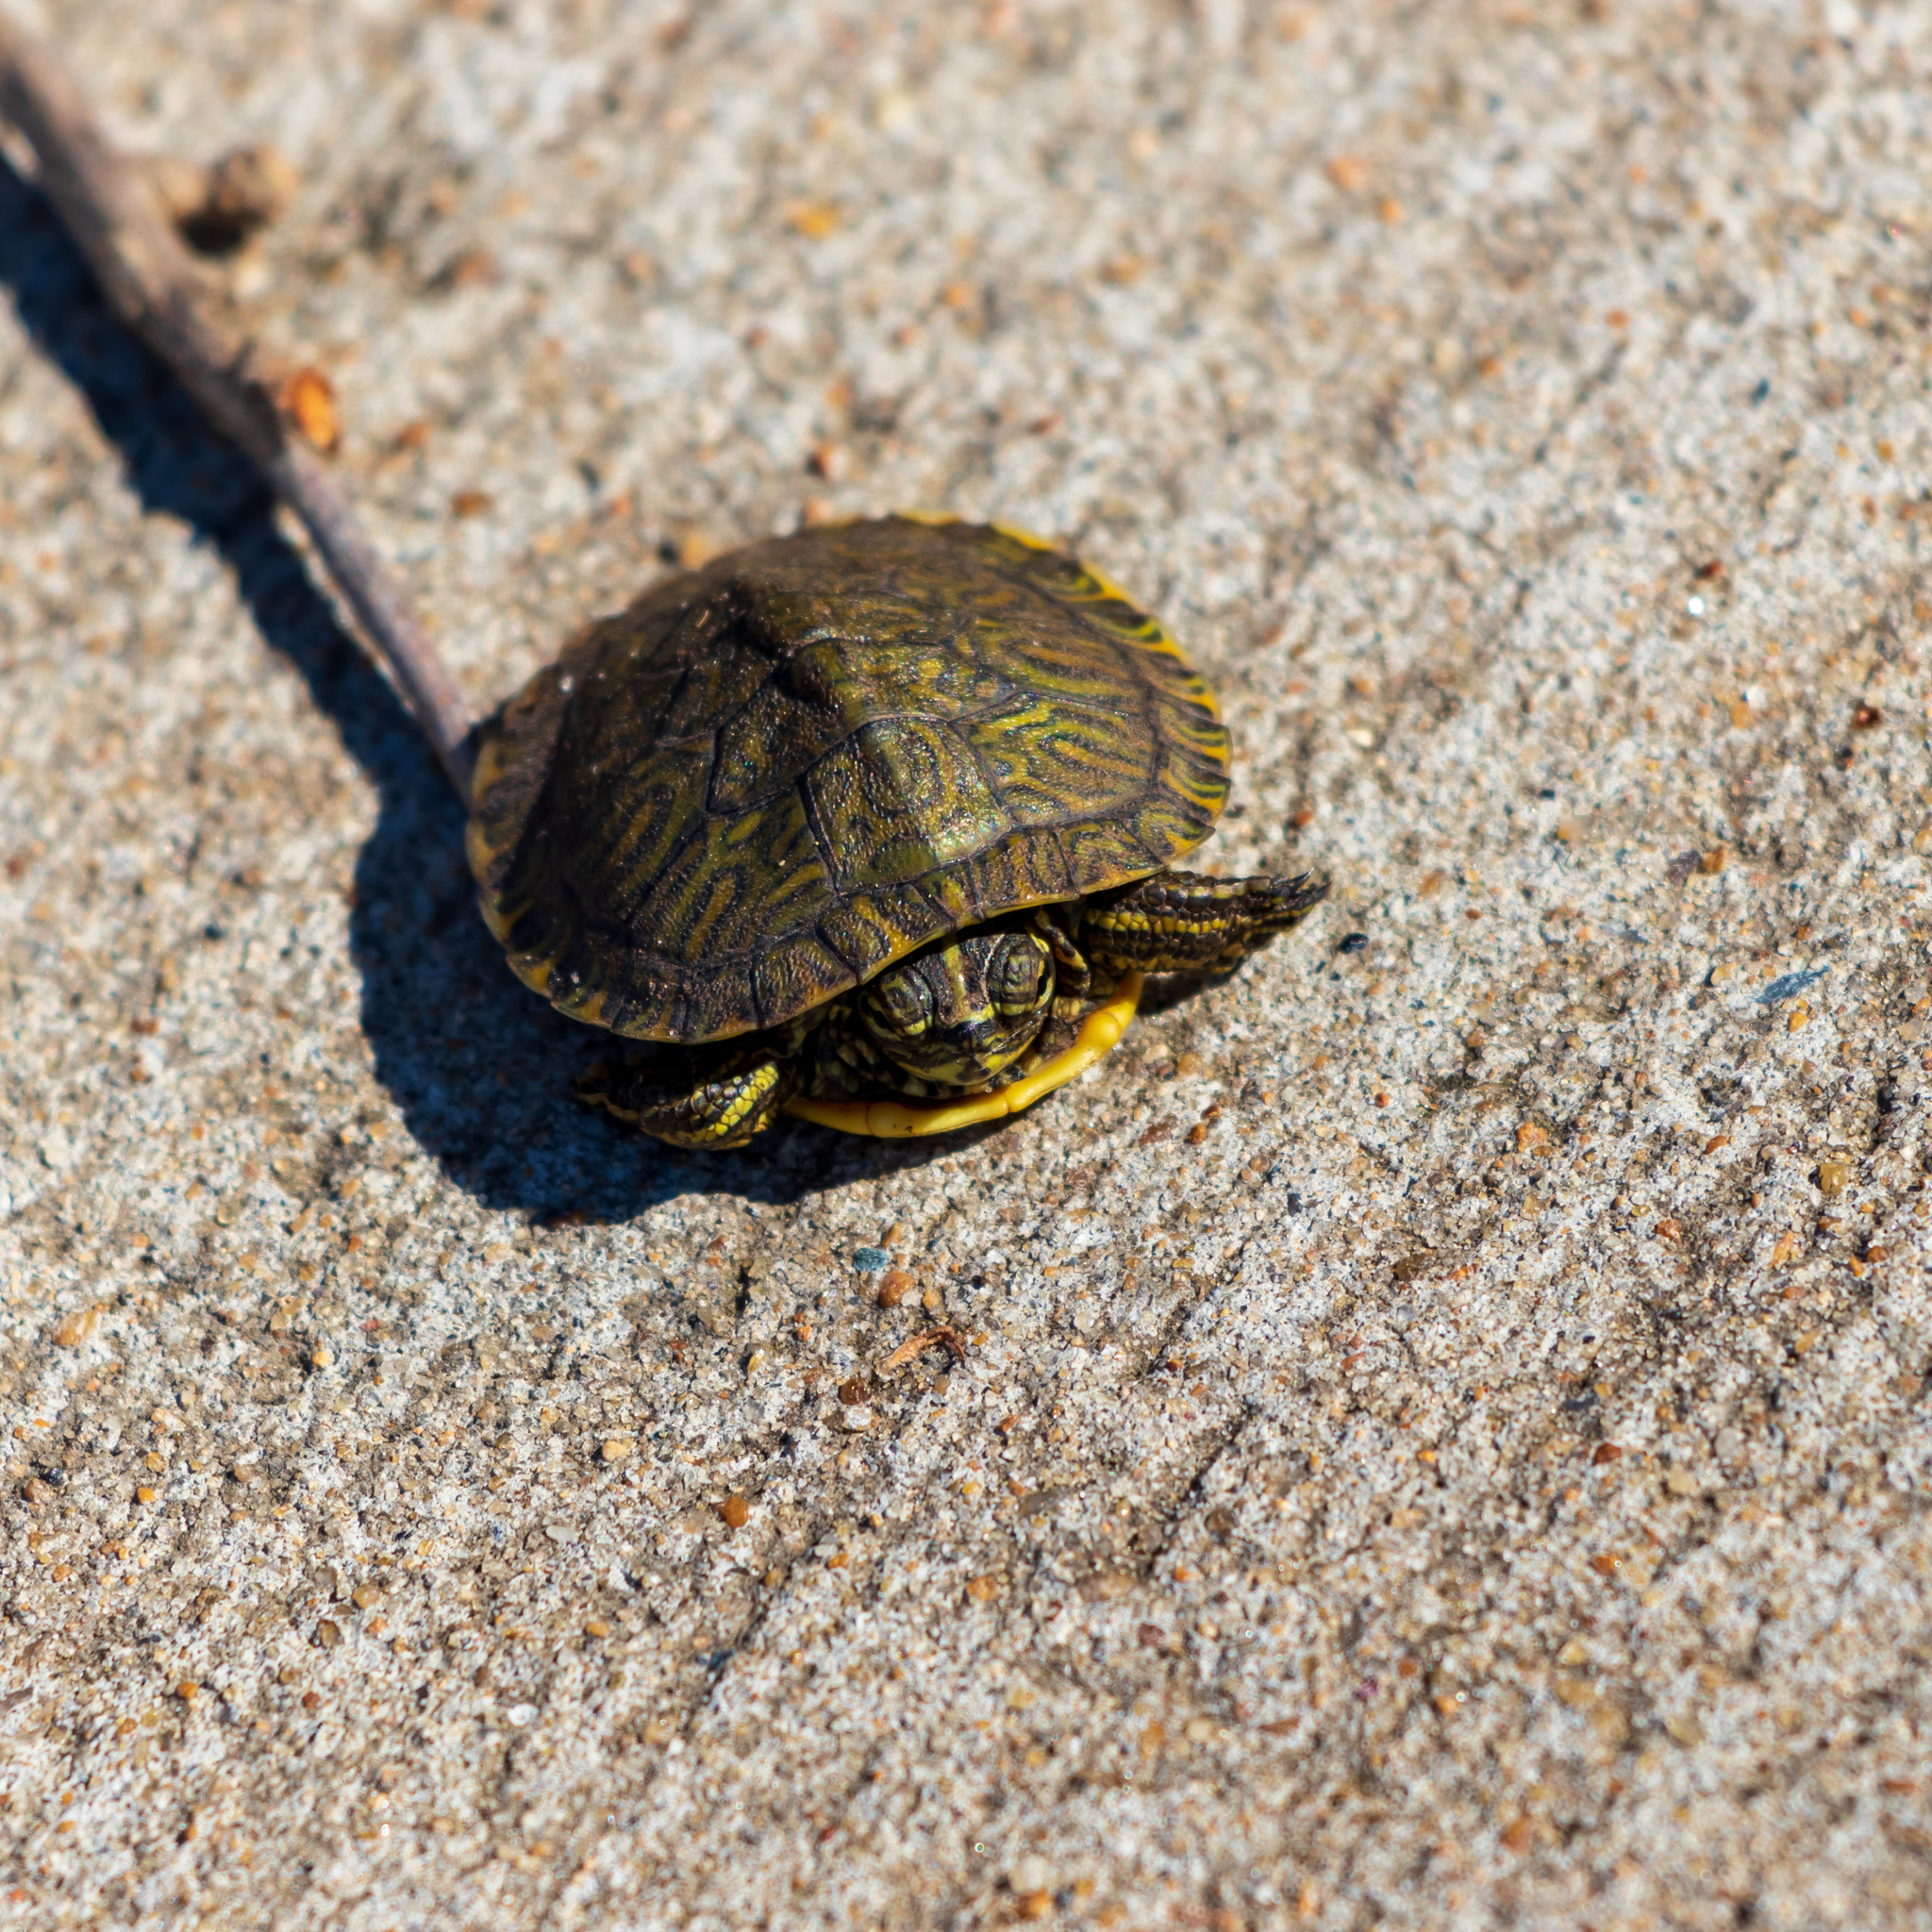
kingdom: Animalia
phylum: Chordata
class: Testudines
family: Emydidae
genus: Trachemys
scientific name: Trachemys scripta
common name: Slider
